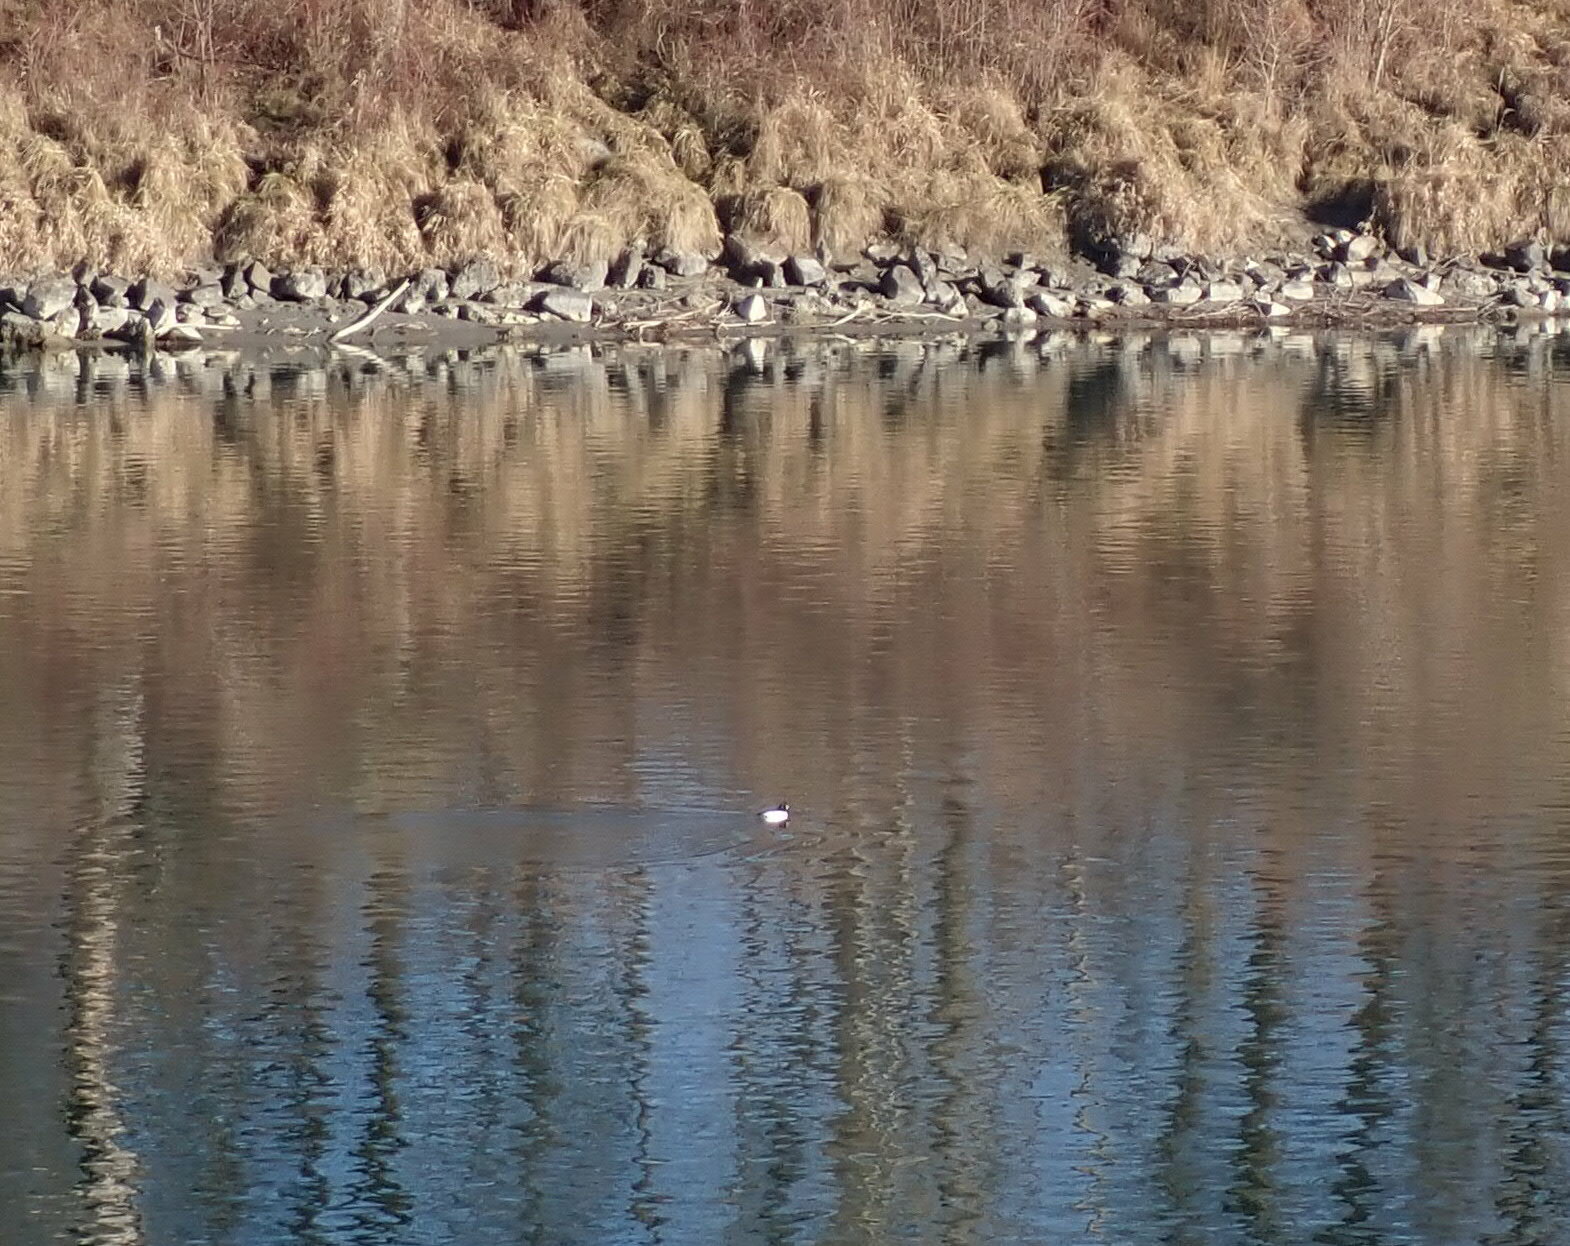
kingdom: Animalia
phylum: Chordata
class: Aves
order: Anseriformes
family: Anatidae
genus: Bucephala
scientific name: Bucephala clangula
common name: Common goldeneye
